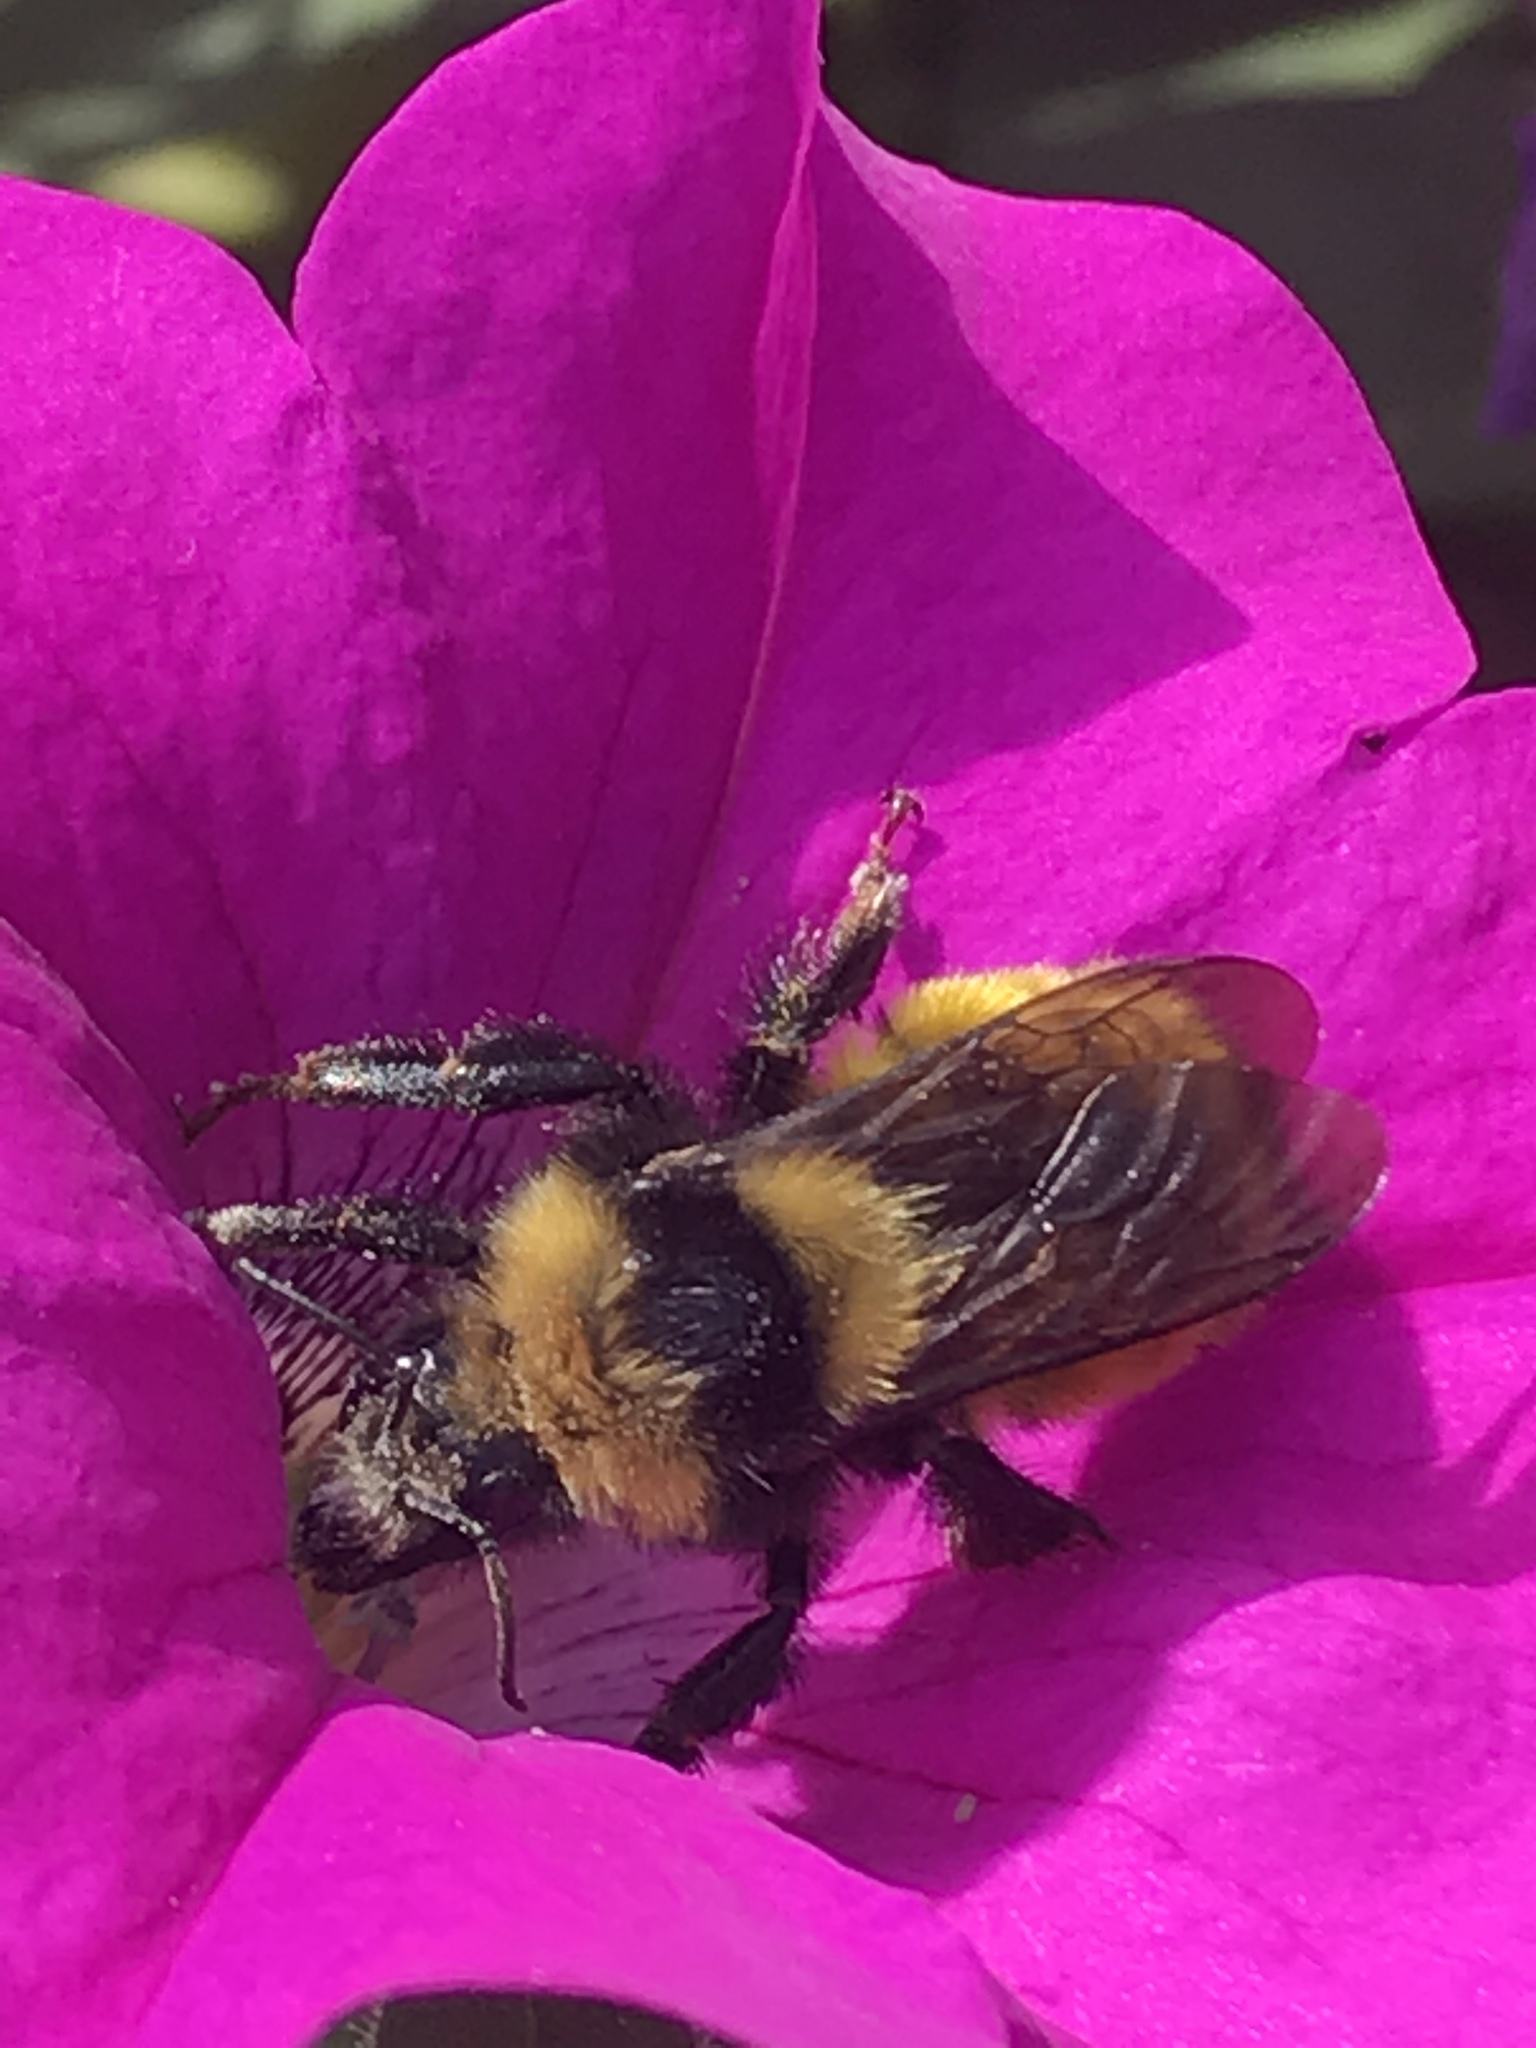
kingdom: Animalia
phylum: Arthropoda
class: Insecta
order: Hymenoptera
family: Apidae
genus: Bombus
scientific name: Bombus borealis
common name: Northern amber bumble bee
